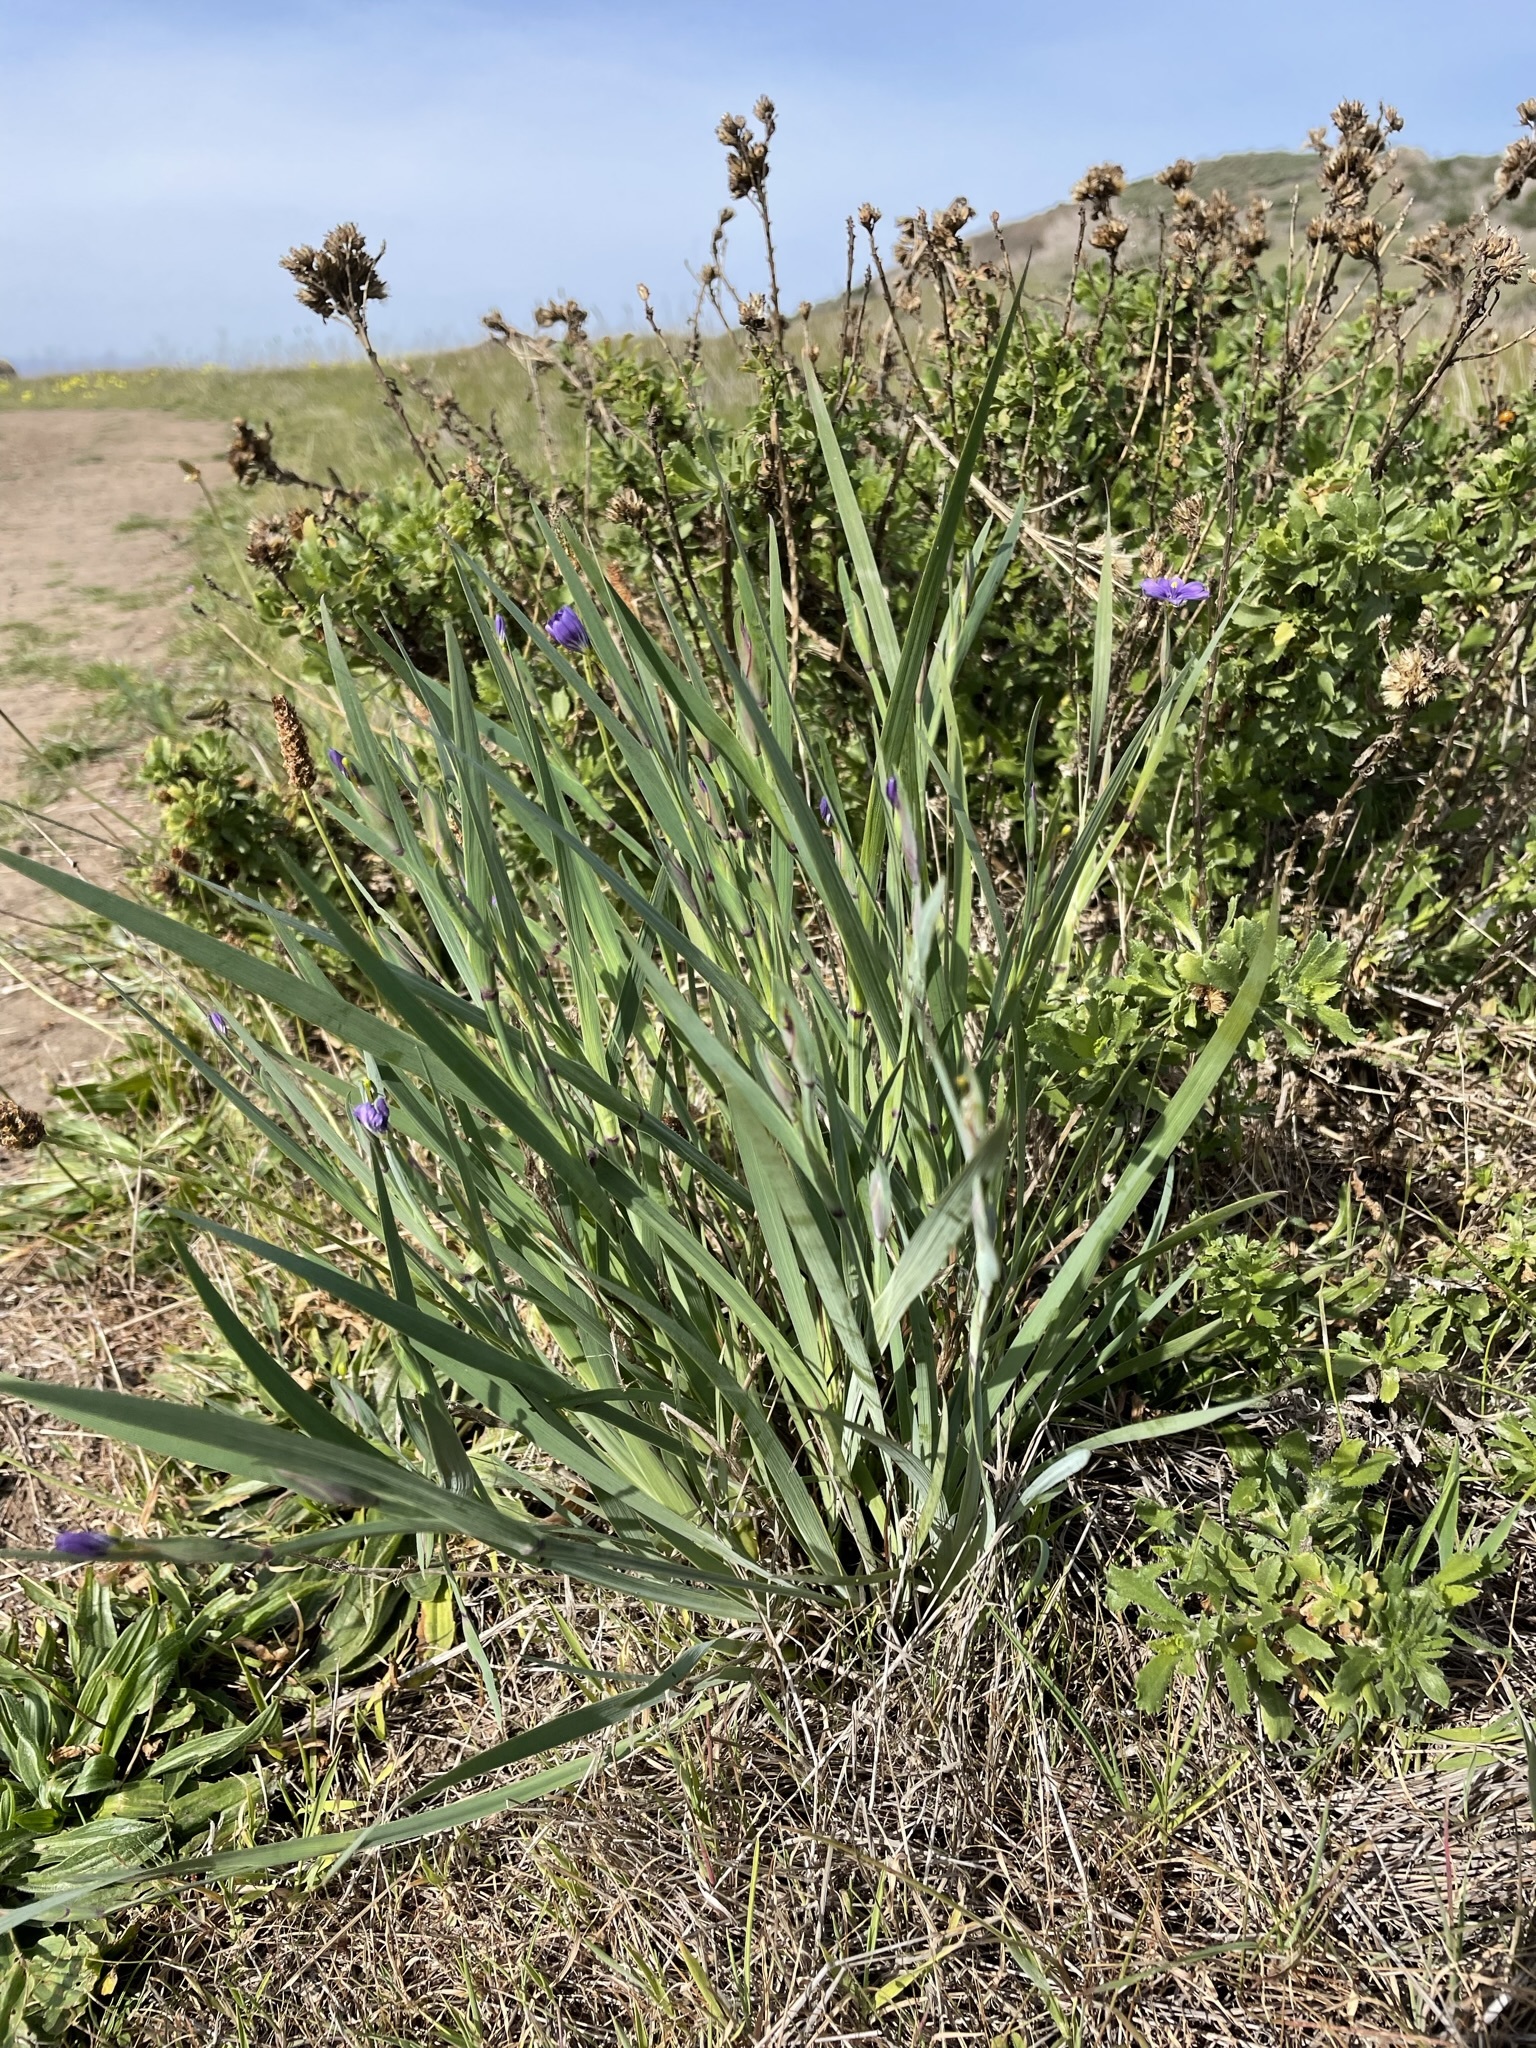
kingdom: Plantae
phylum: Tracheophyta
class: Liliopsida
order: Asparagales
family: Iridaceae
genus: Sisyrinchium
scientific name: Sisyrinchium bellum
